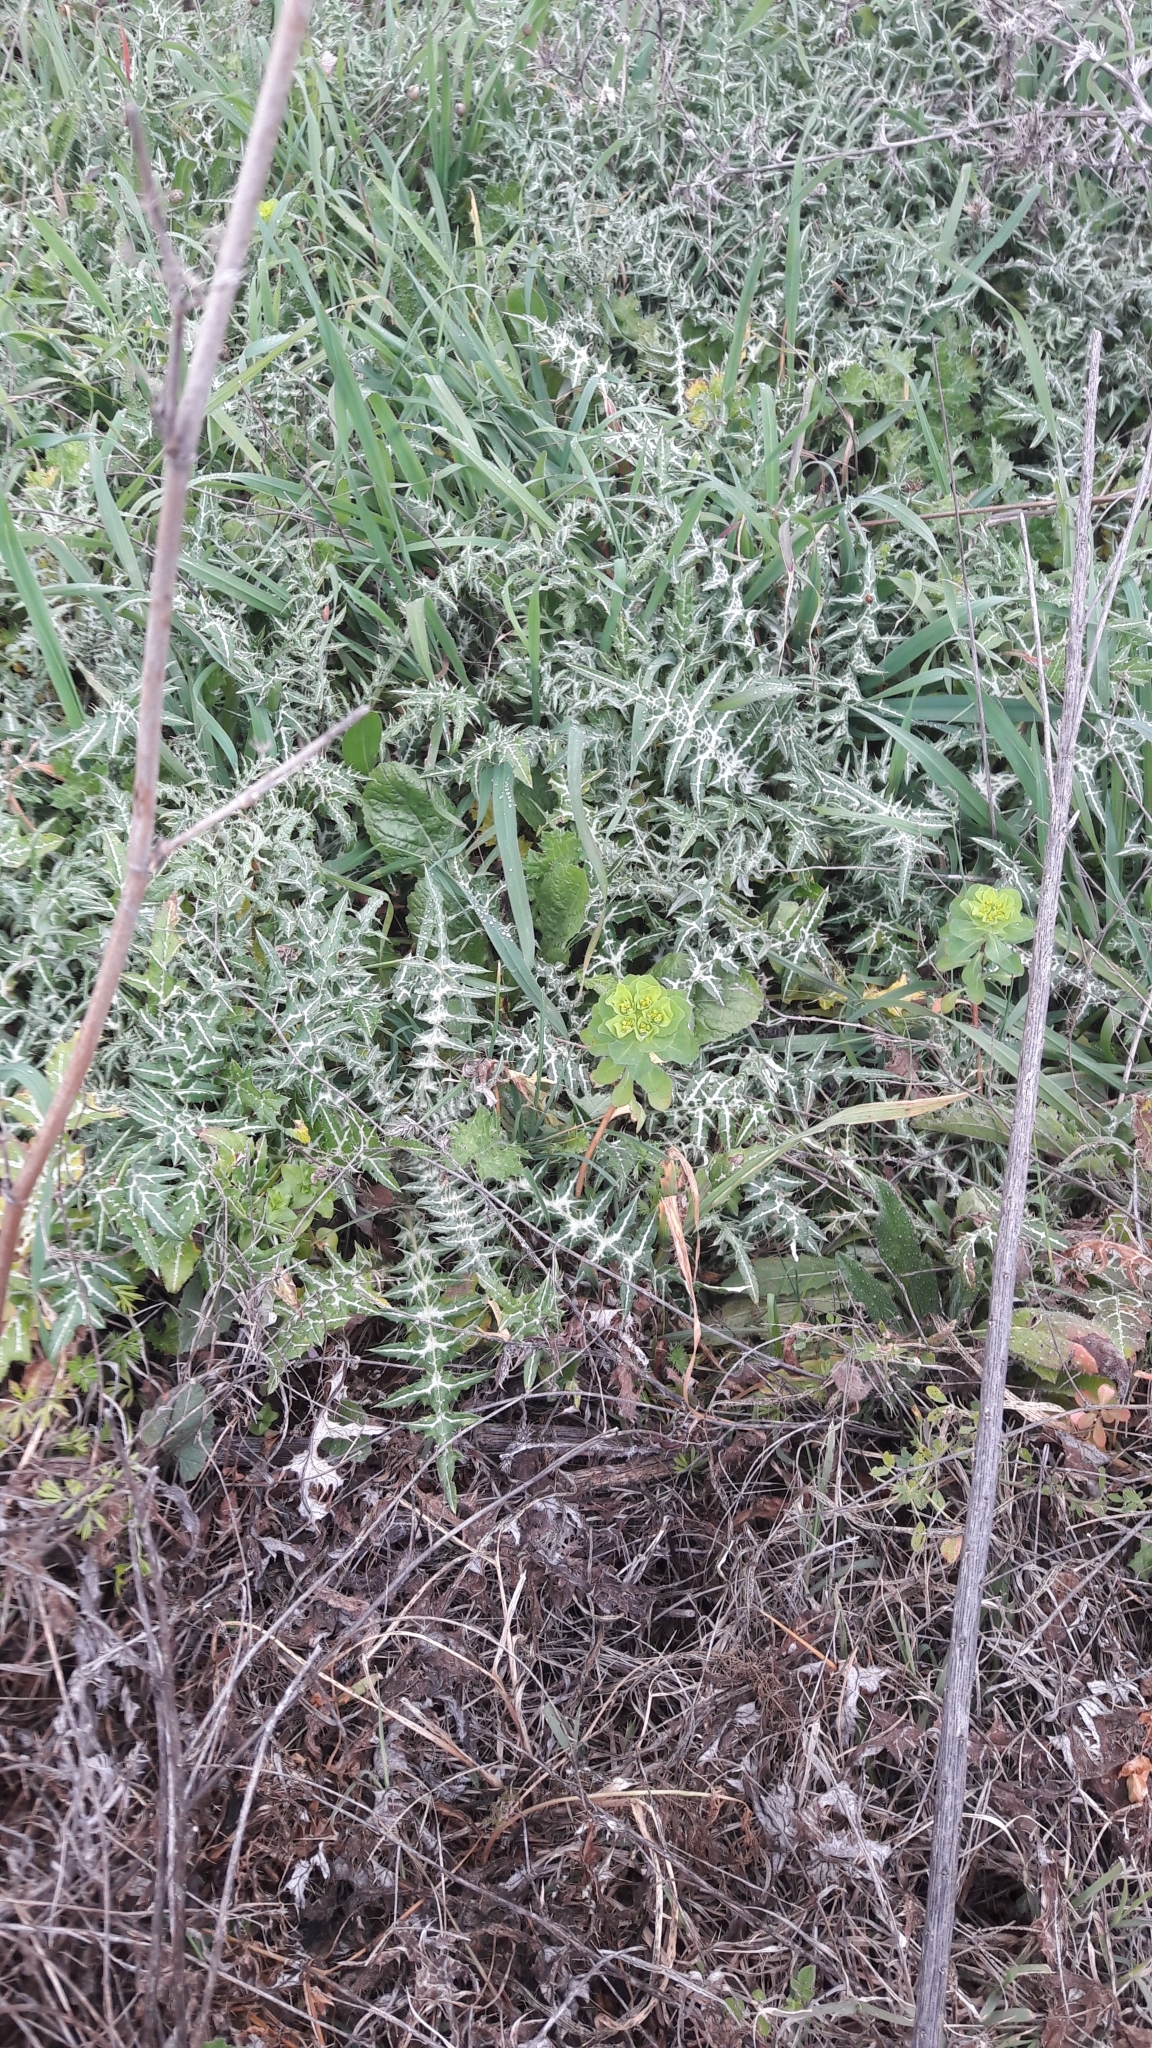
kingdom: Plantae
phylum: Tracheophyta
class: Magnoliopsida
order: Asterales
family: Asteraceae
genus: Galactites
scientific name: Galactites tomentosa
